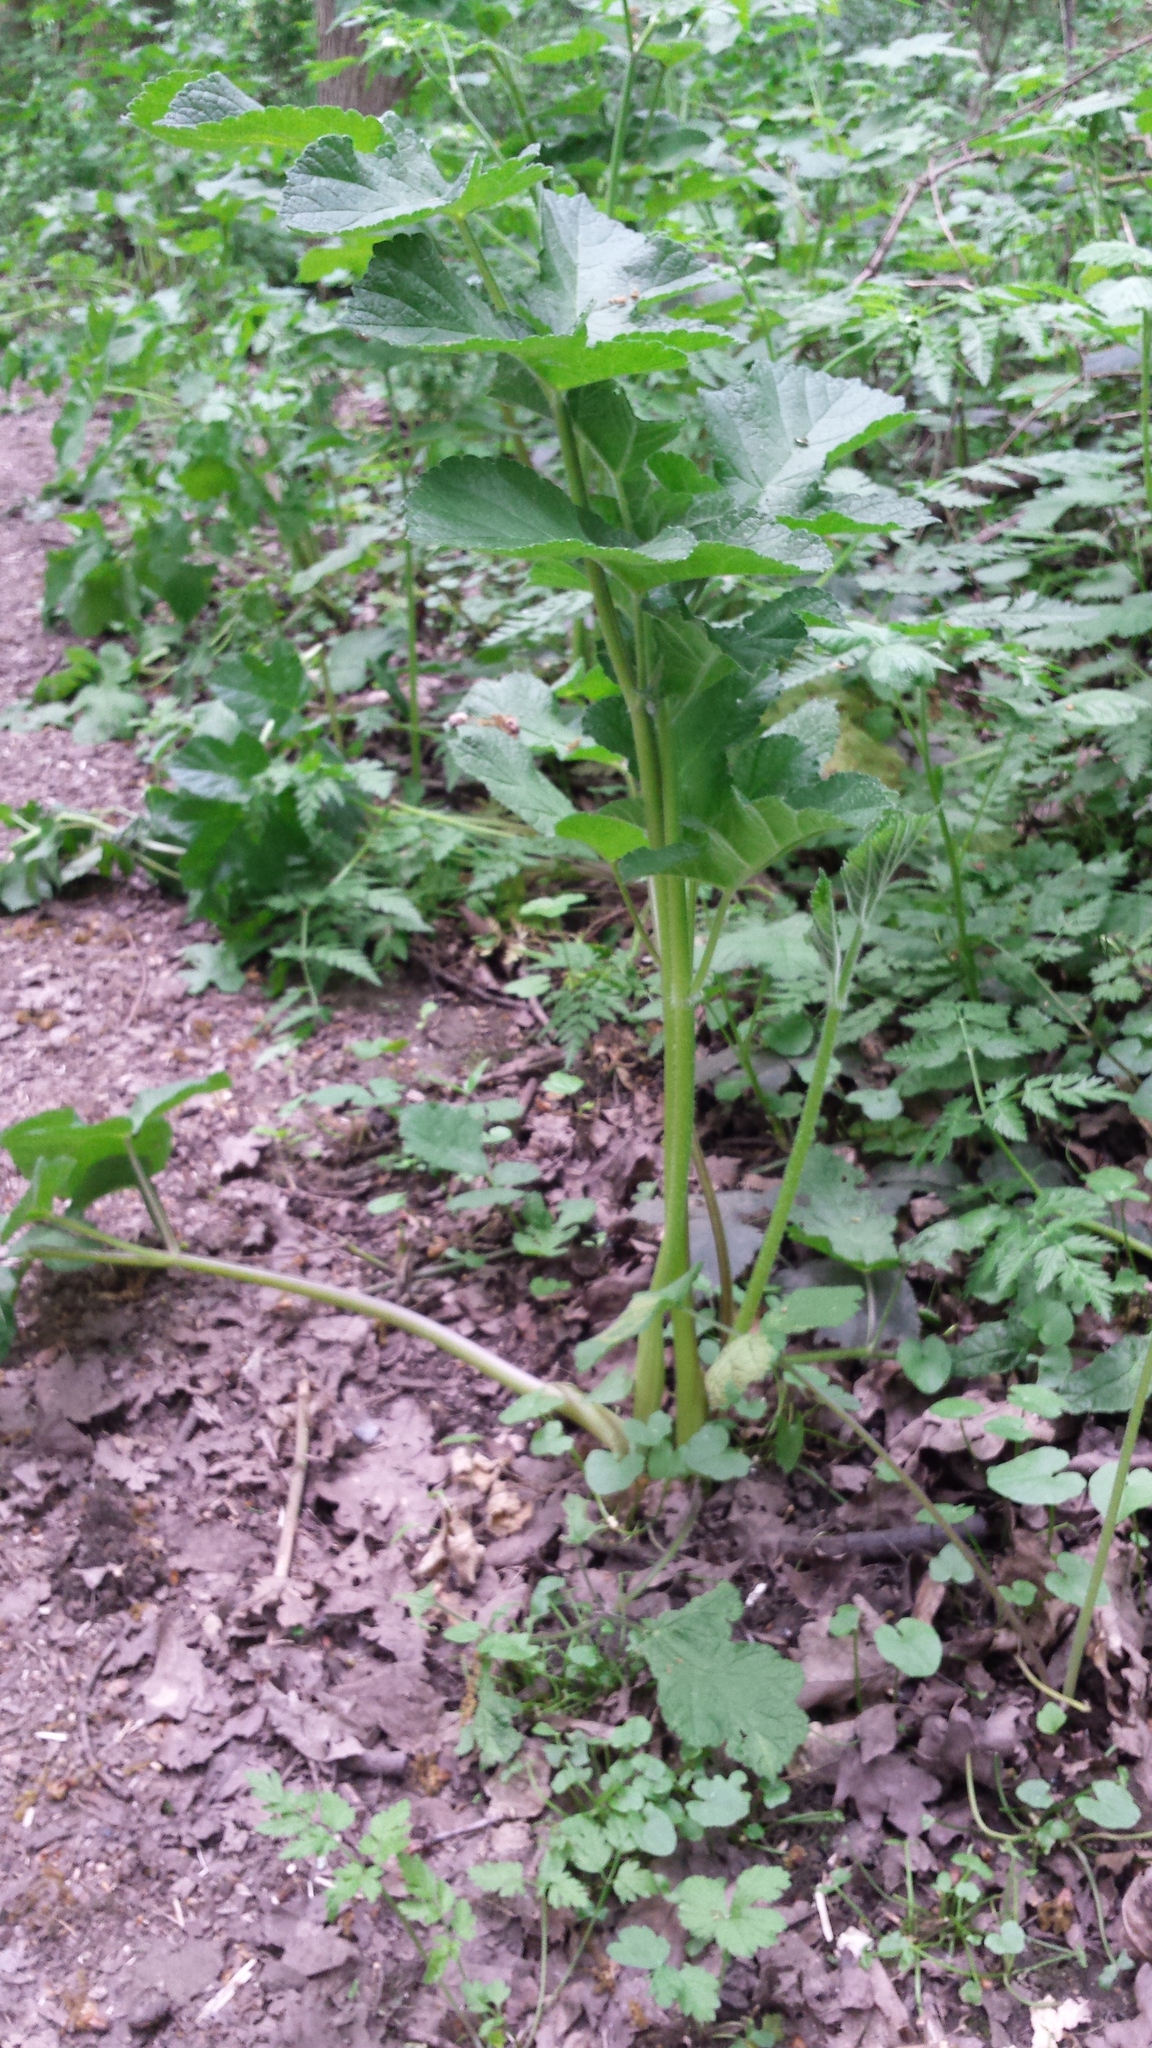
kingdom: Plantae
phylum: Tracheophyta
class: Magnoliopsida
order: Apiales
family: Apiaceae
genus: Heracleum
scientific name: Heracleum sphondylium
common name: Hogweed
